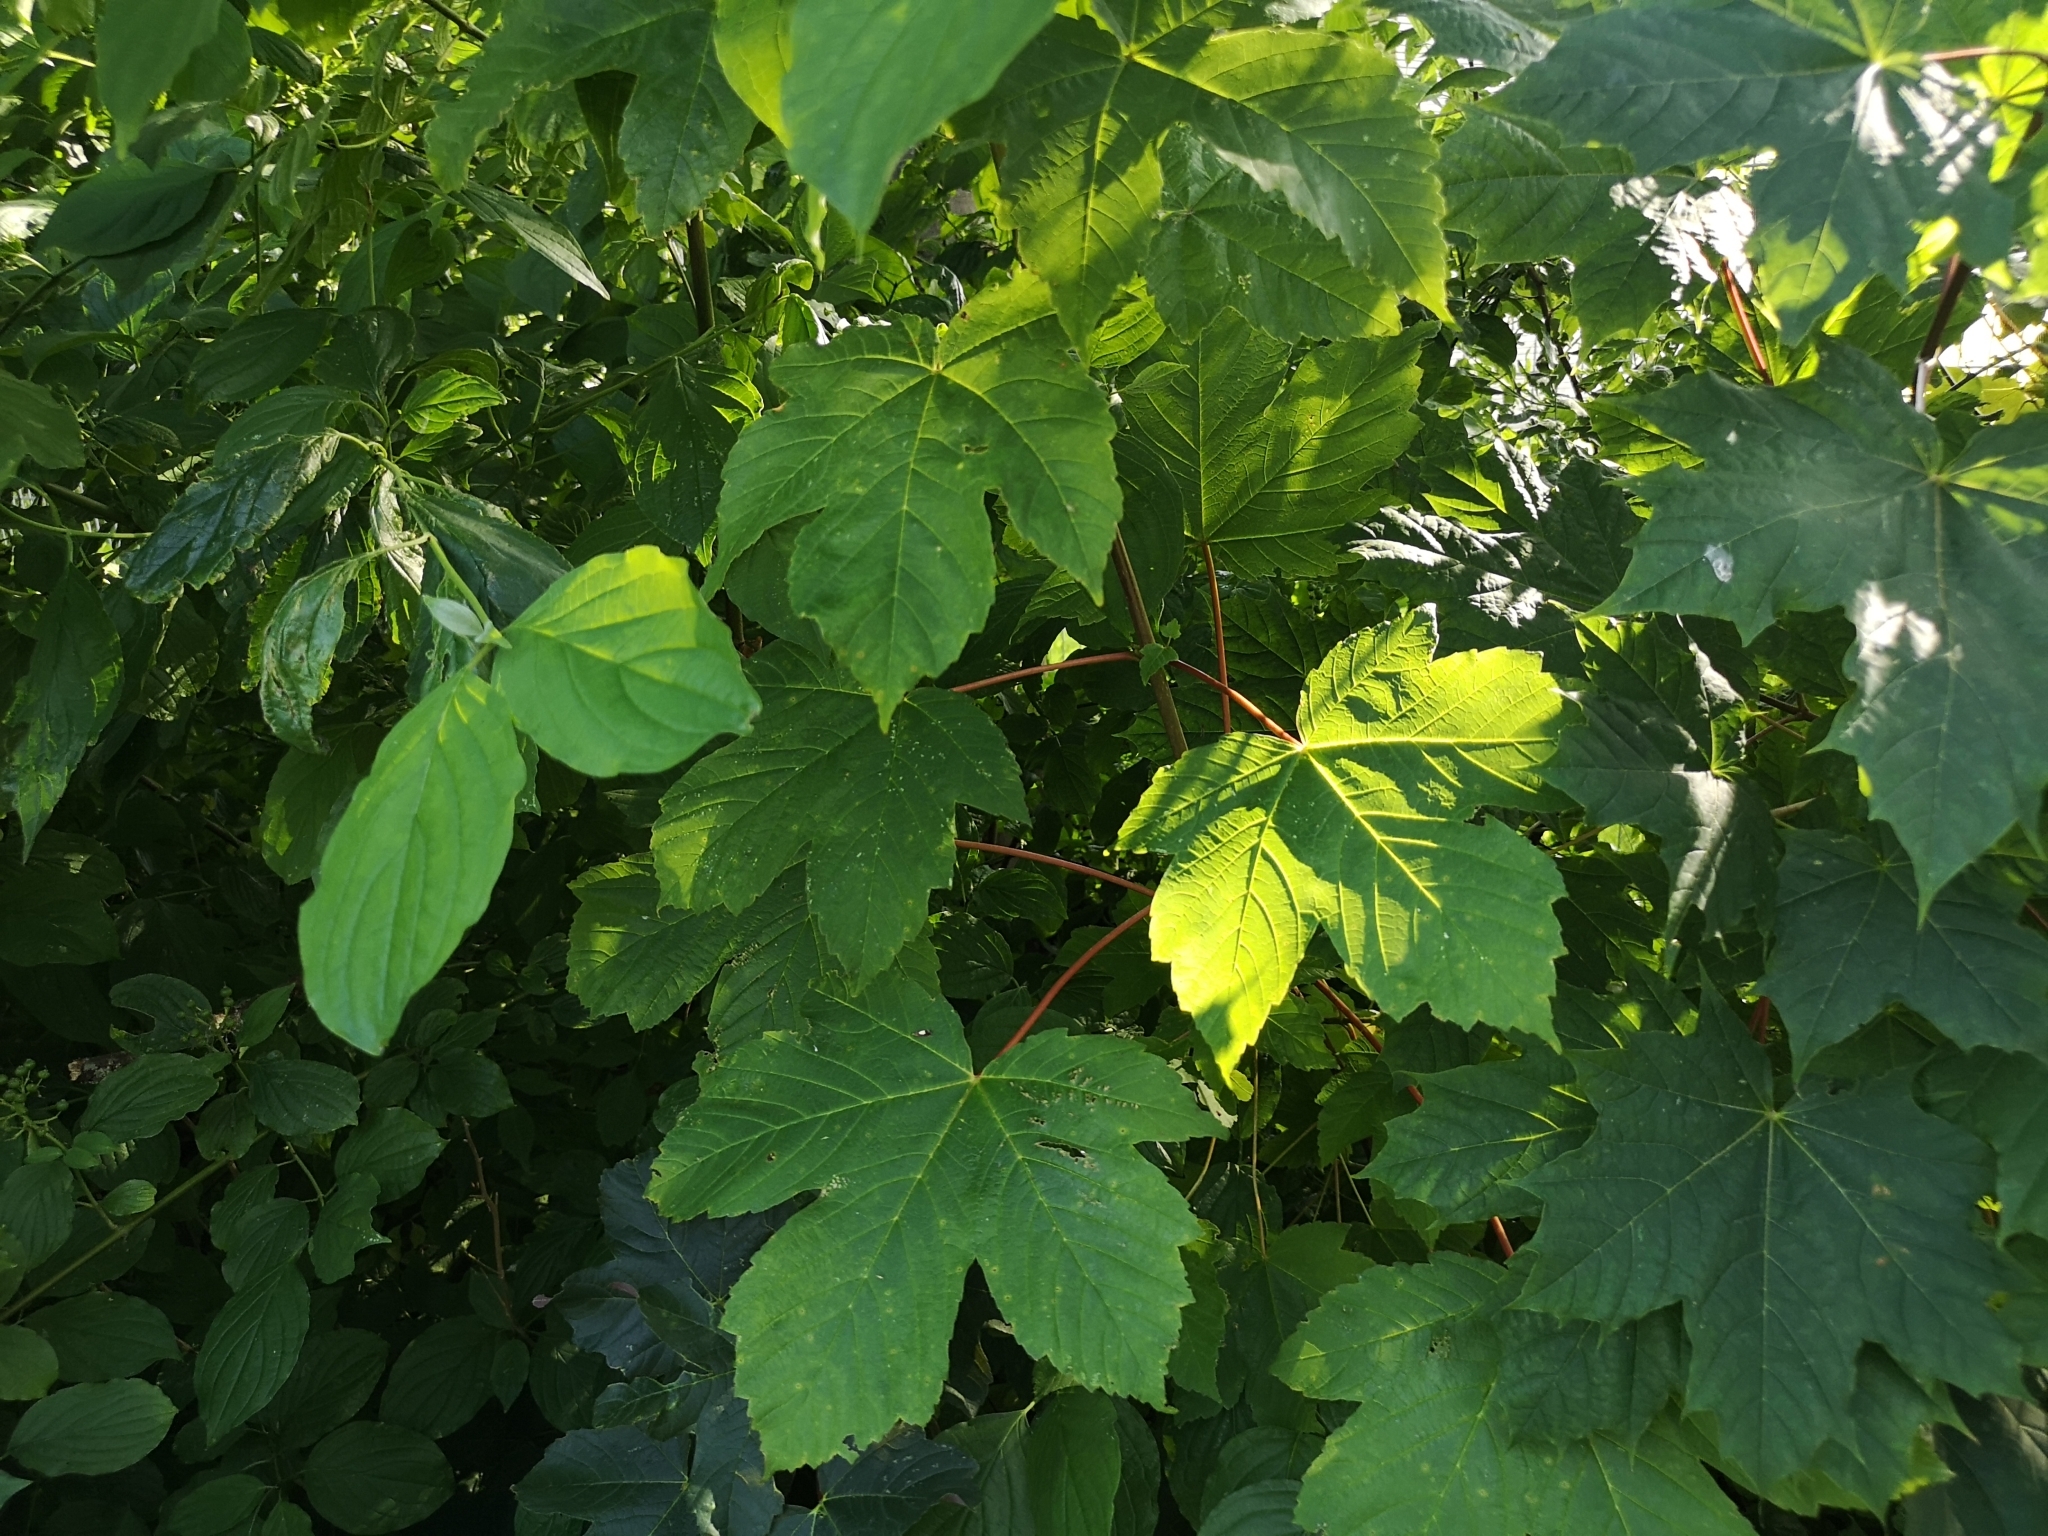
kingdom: Plantae
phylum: Tracheophyta
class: Magnoliopsida
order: Sapindales
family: Sapindaceae
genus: Acer
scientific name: Acer pseudoplatanus
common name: Sycamore
